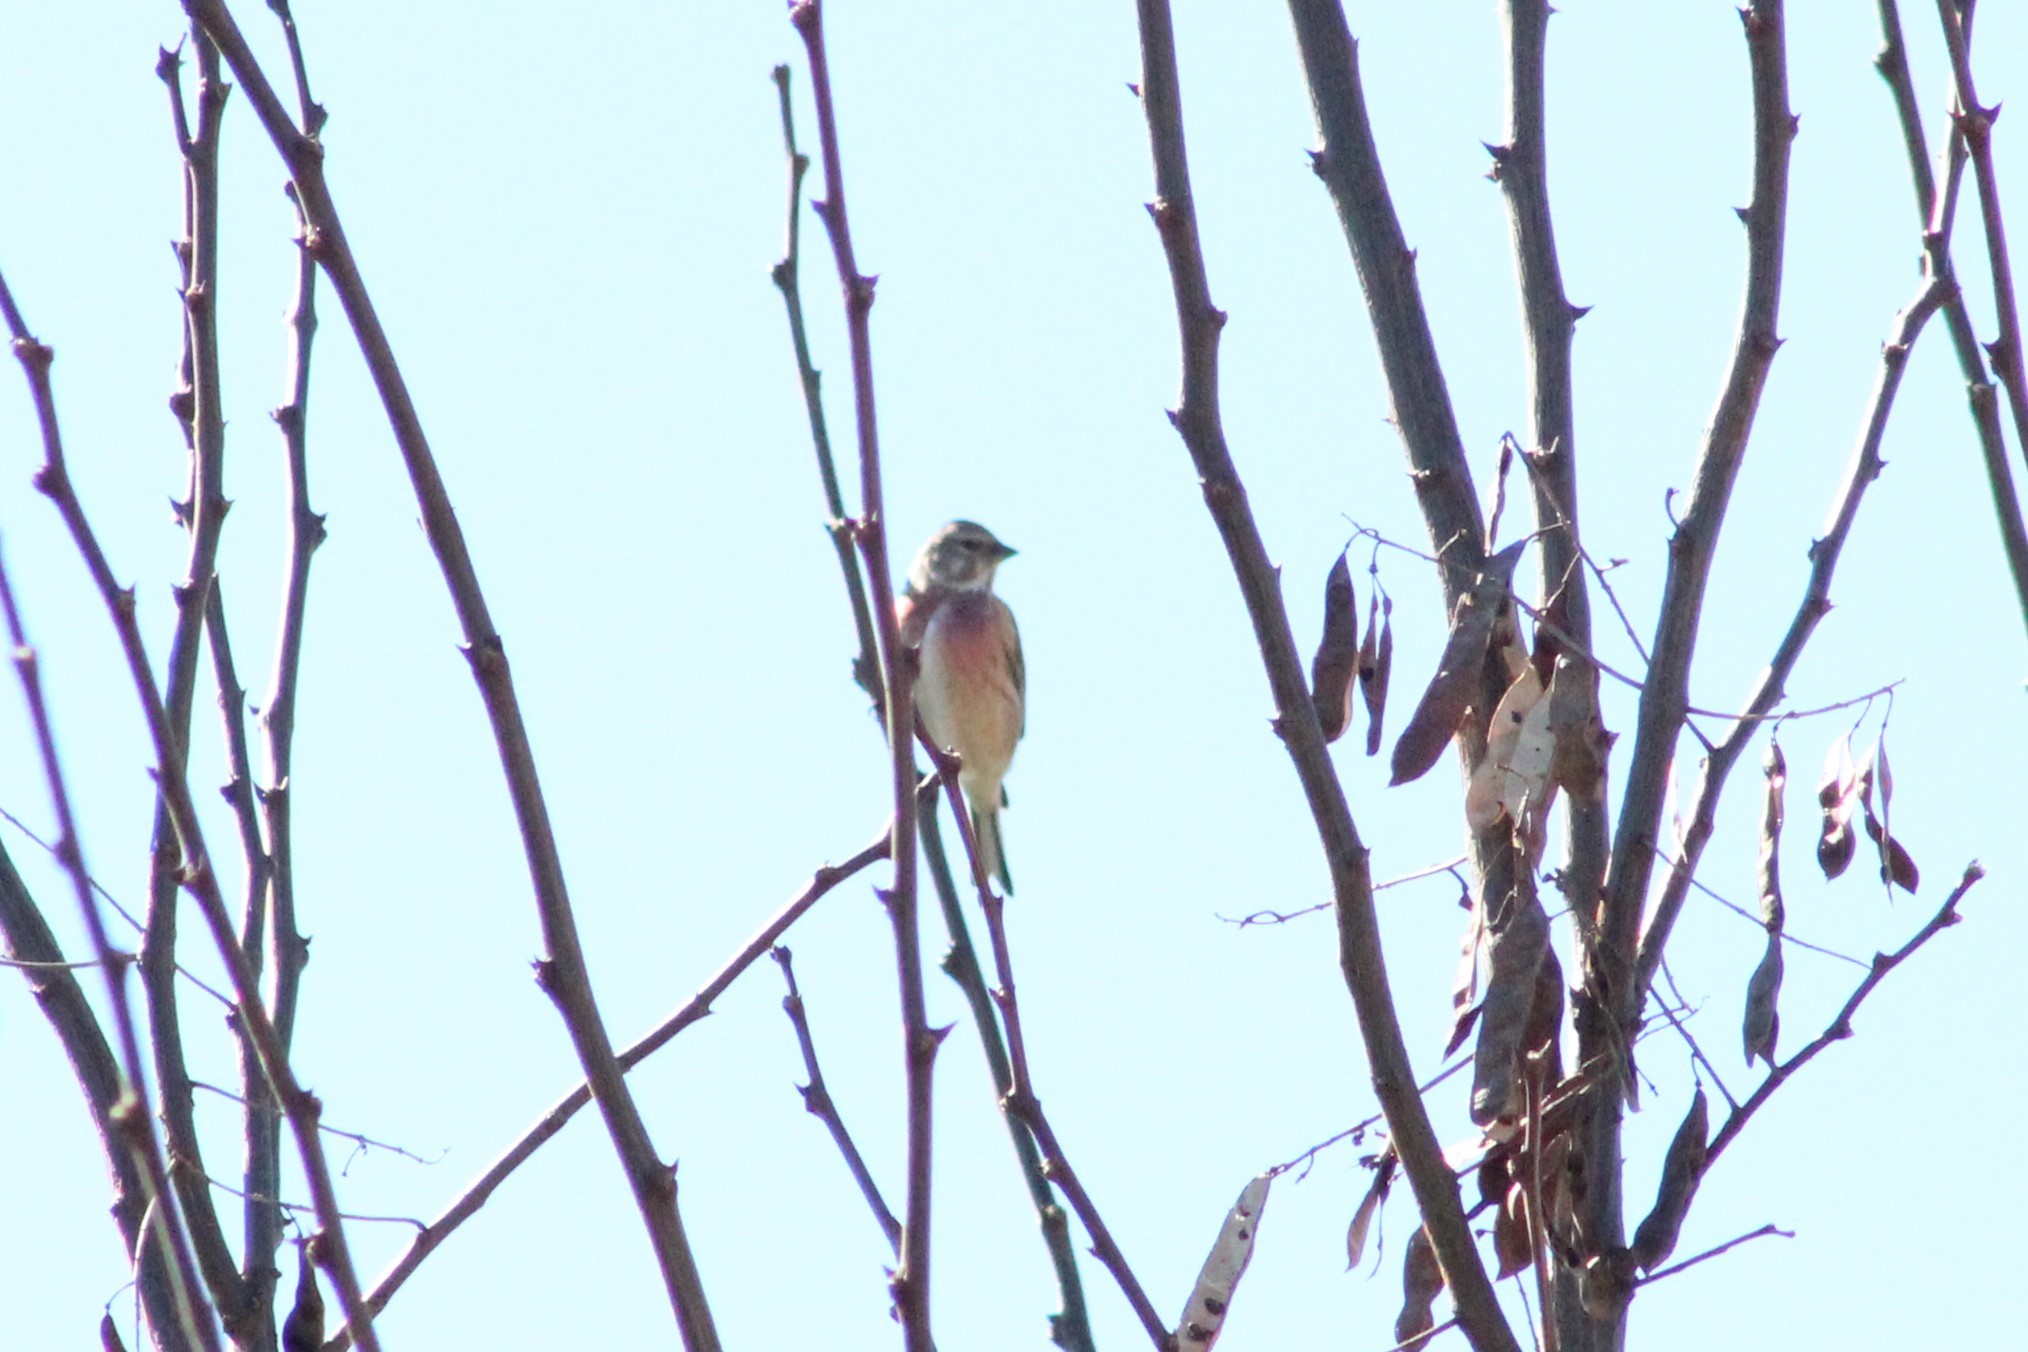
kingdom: Animalia
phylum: Chordata
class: Aves
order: Passeriformes
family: Fringillidae
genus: Linaria
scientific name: Linaria cannabina
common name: Common linnet
